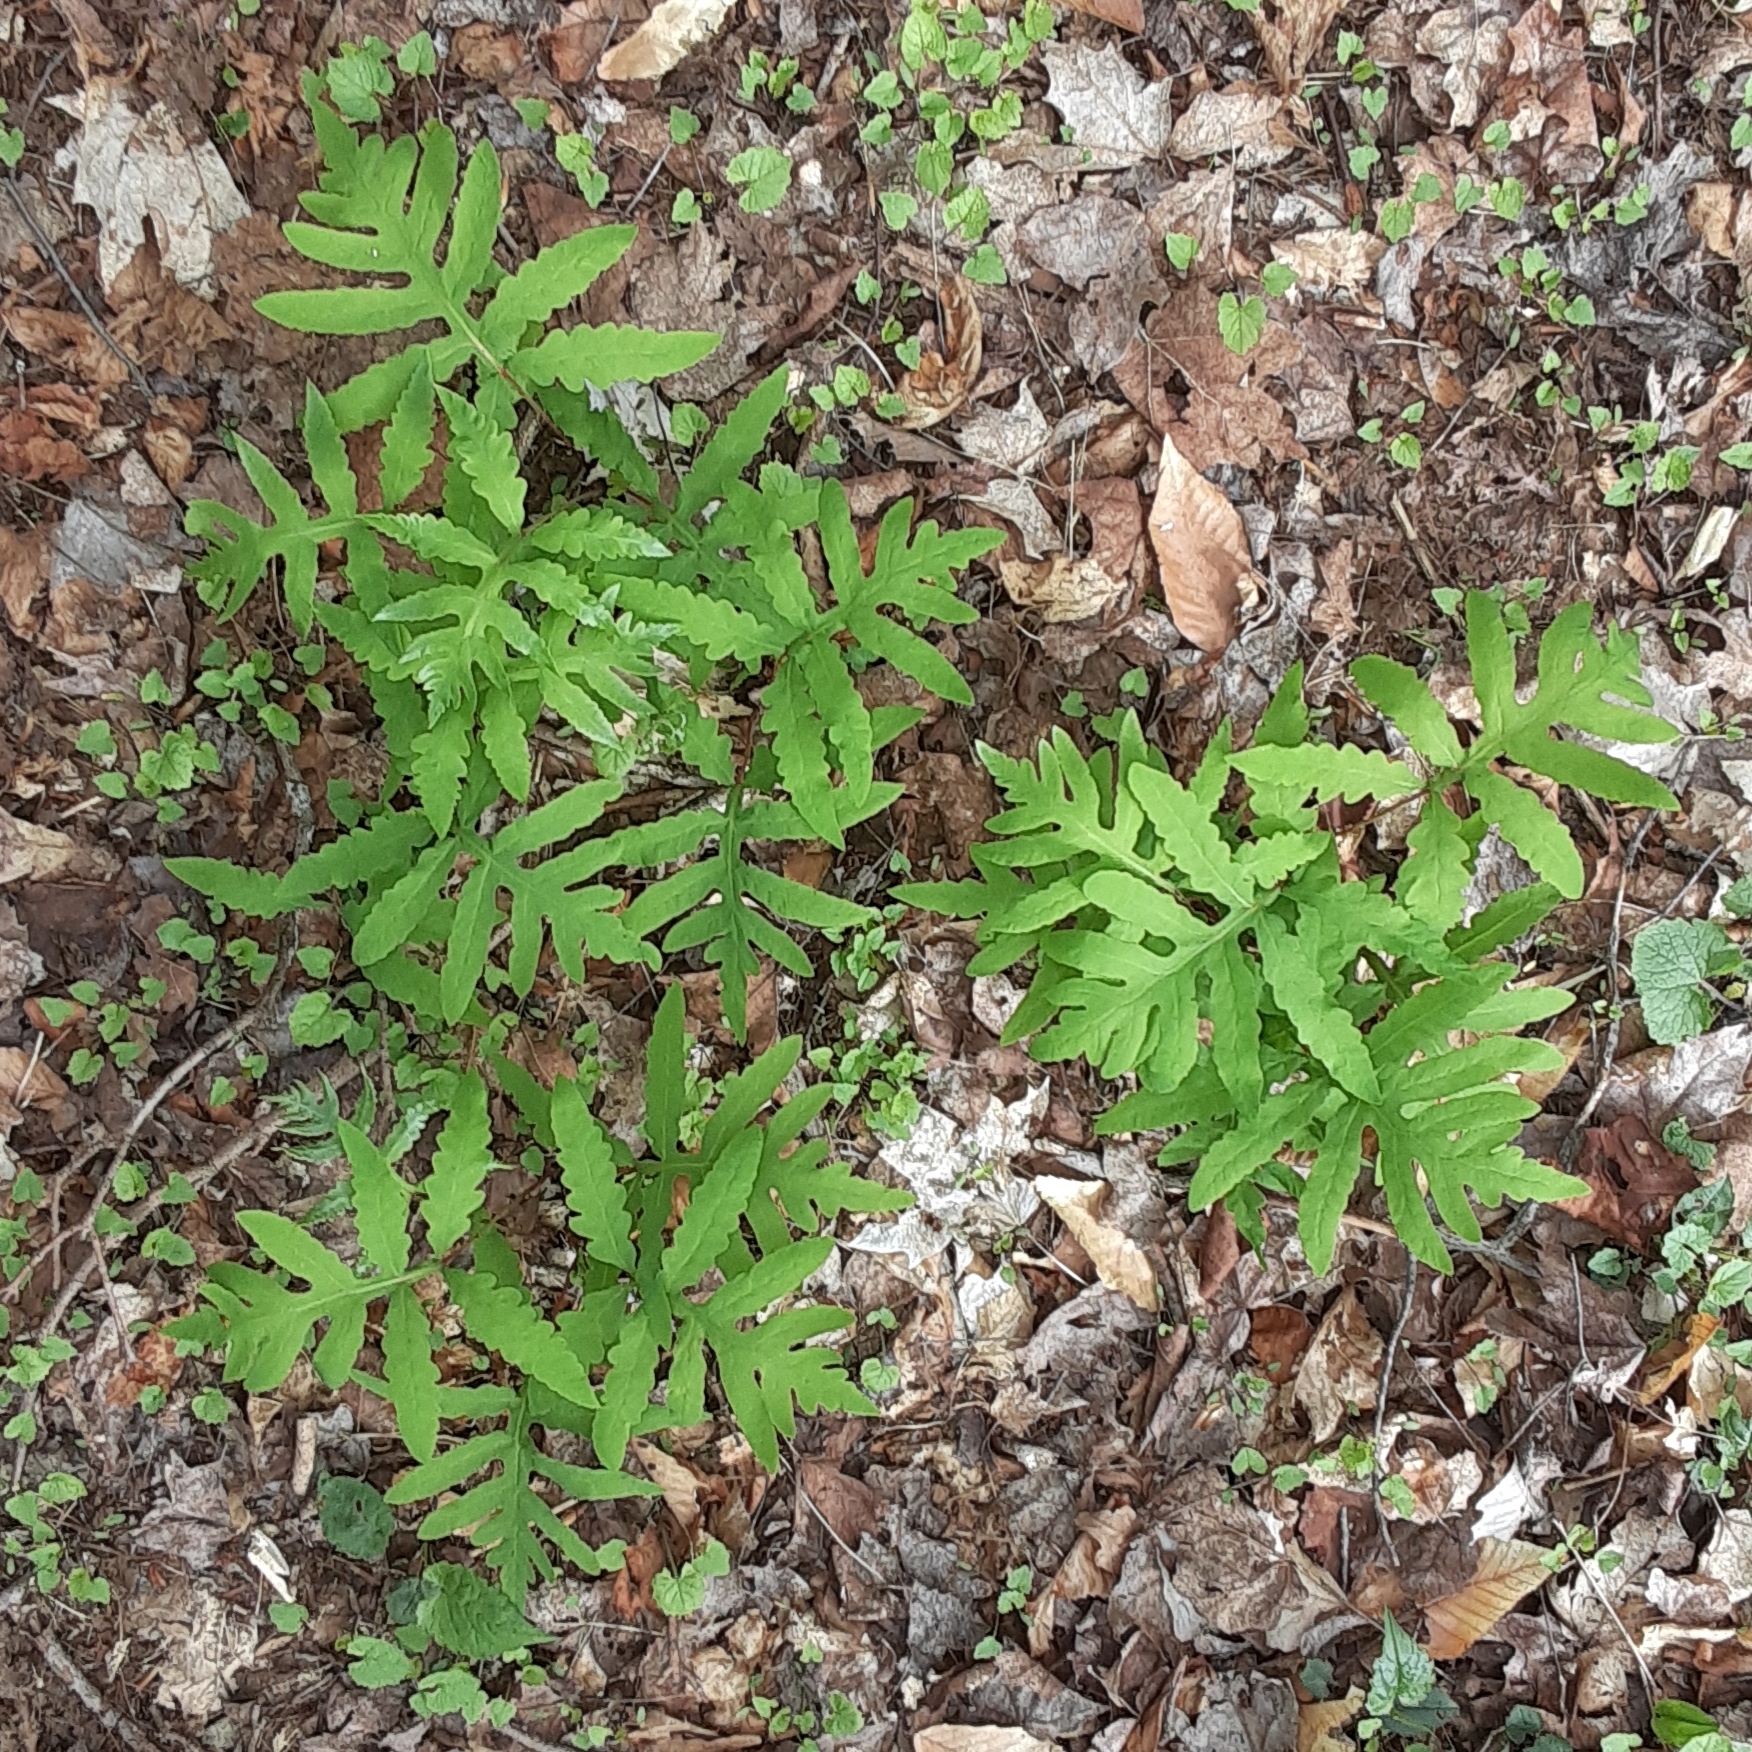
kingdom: Plantae
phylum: Tracheophyta
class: Polypodiopsida
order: Polypodiales
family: Onocleaceae
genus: Onoclea
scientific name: Onoclea sensibilis
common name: Sensitive fern
